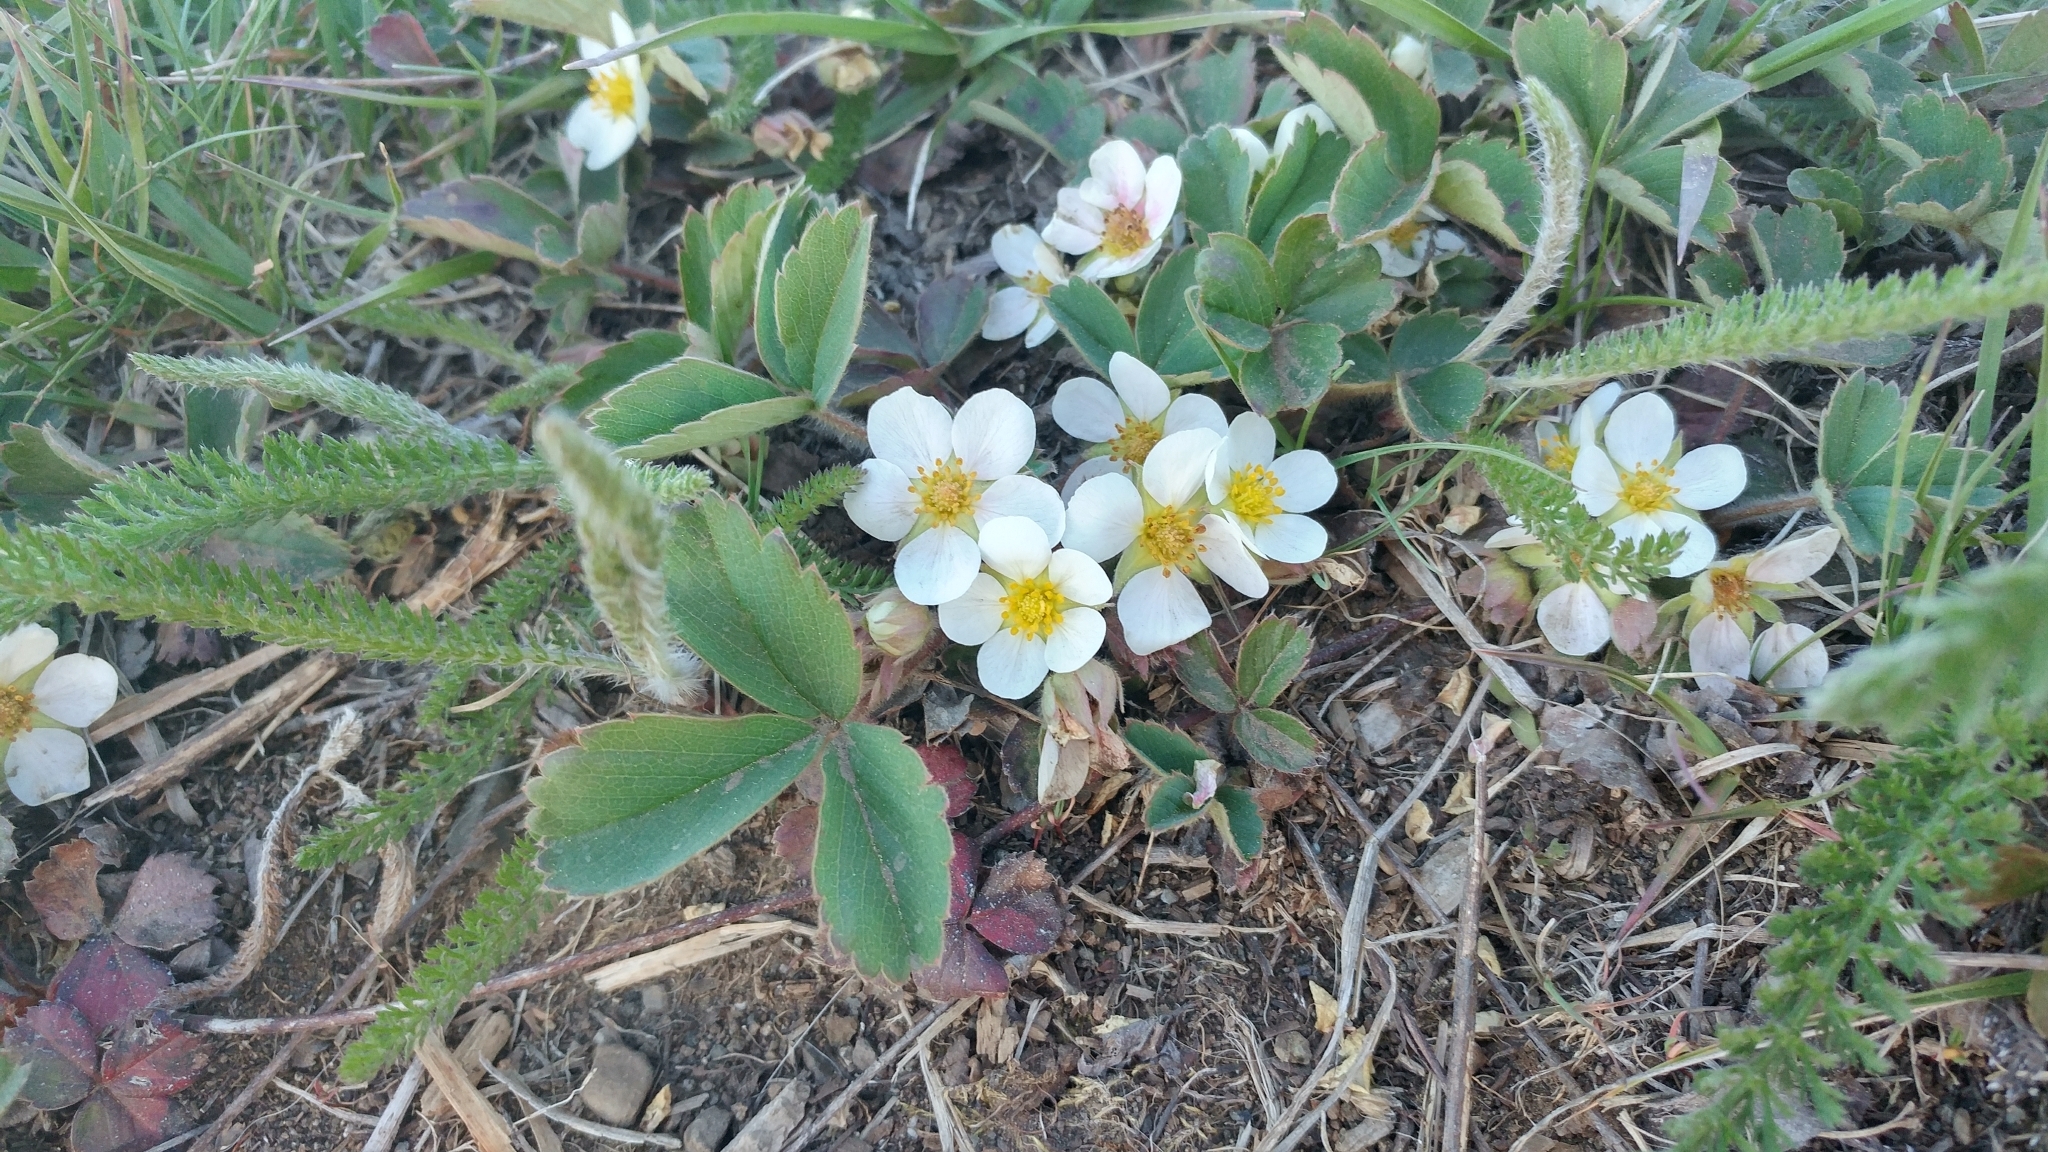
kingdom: Plantae
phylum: Tracheophyta
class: Magnoliopsida
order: Rosales
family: Rosaceae
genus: Fragaria
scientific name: Fragaria virginiana
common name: Thickleaved wild strawberry
